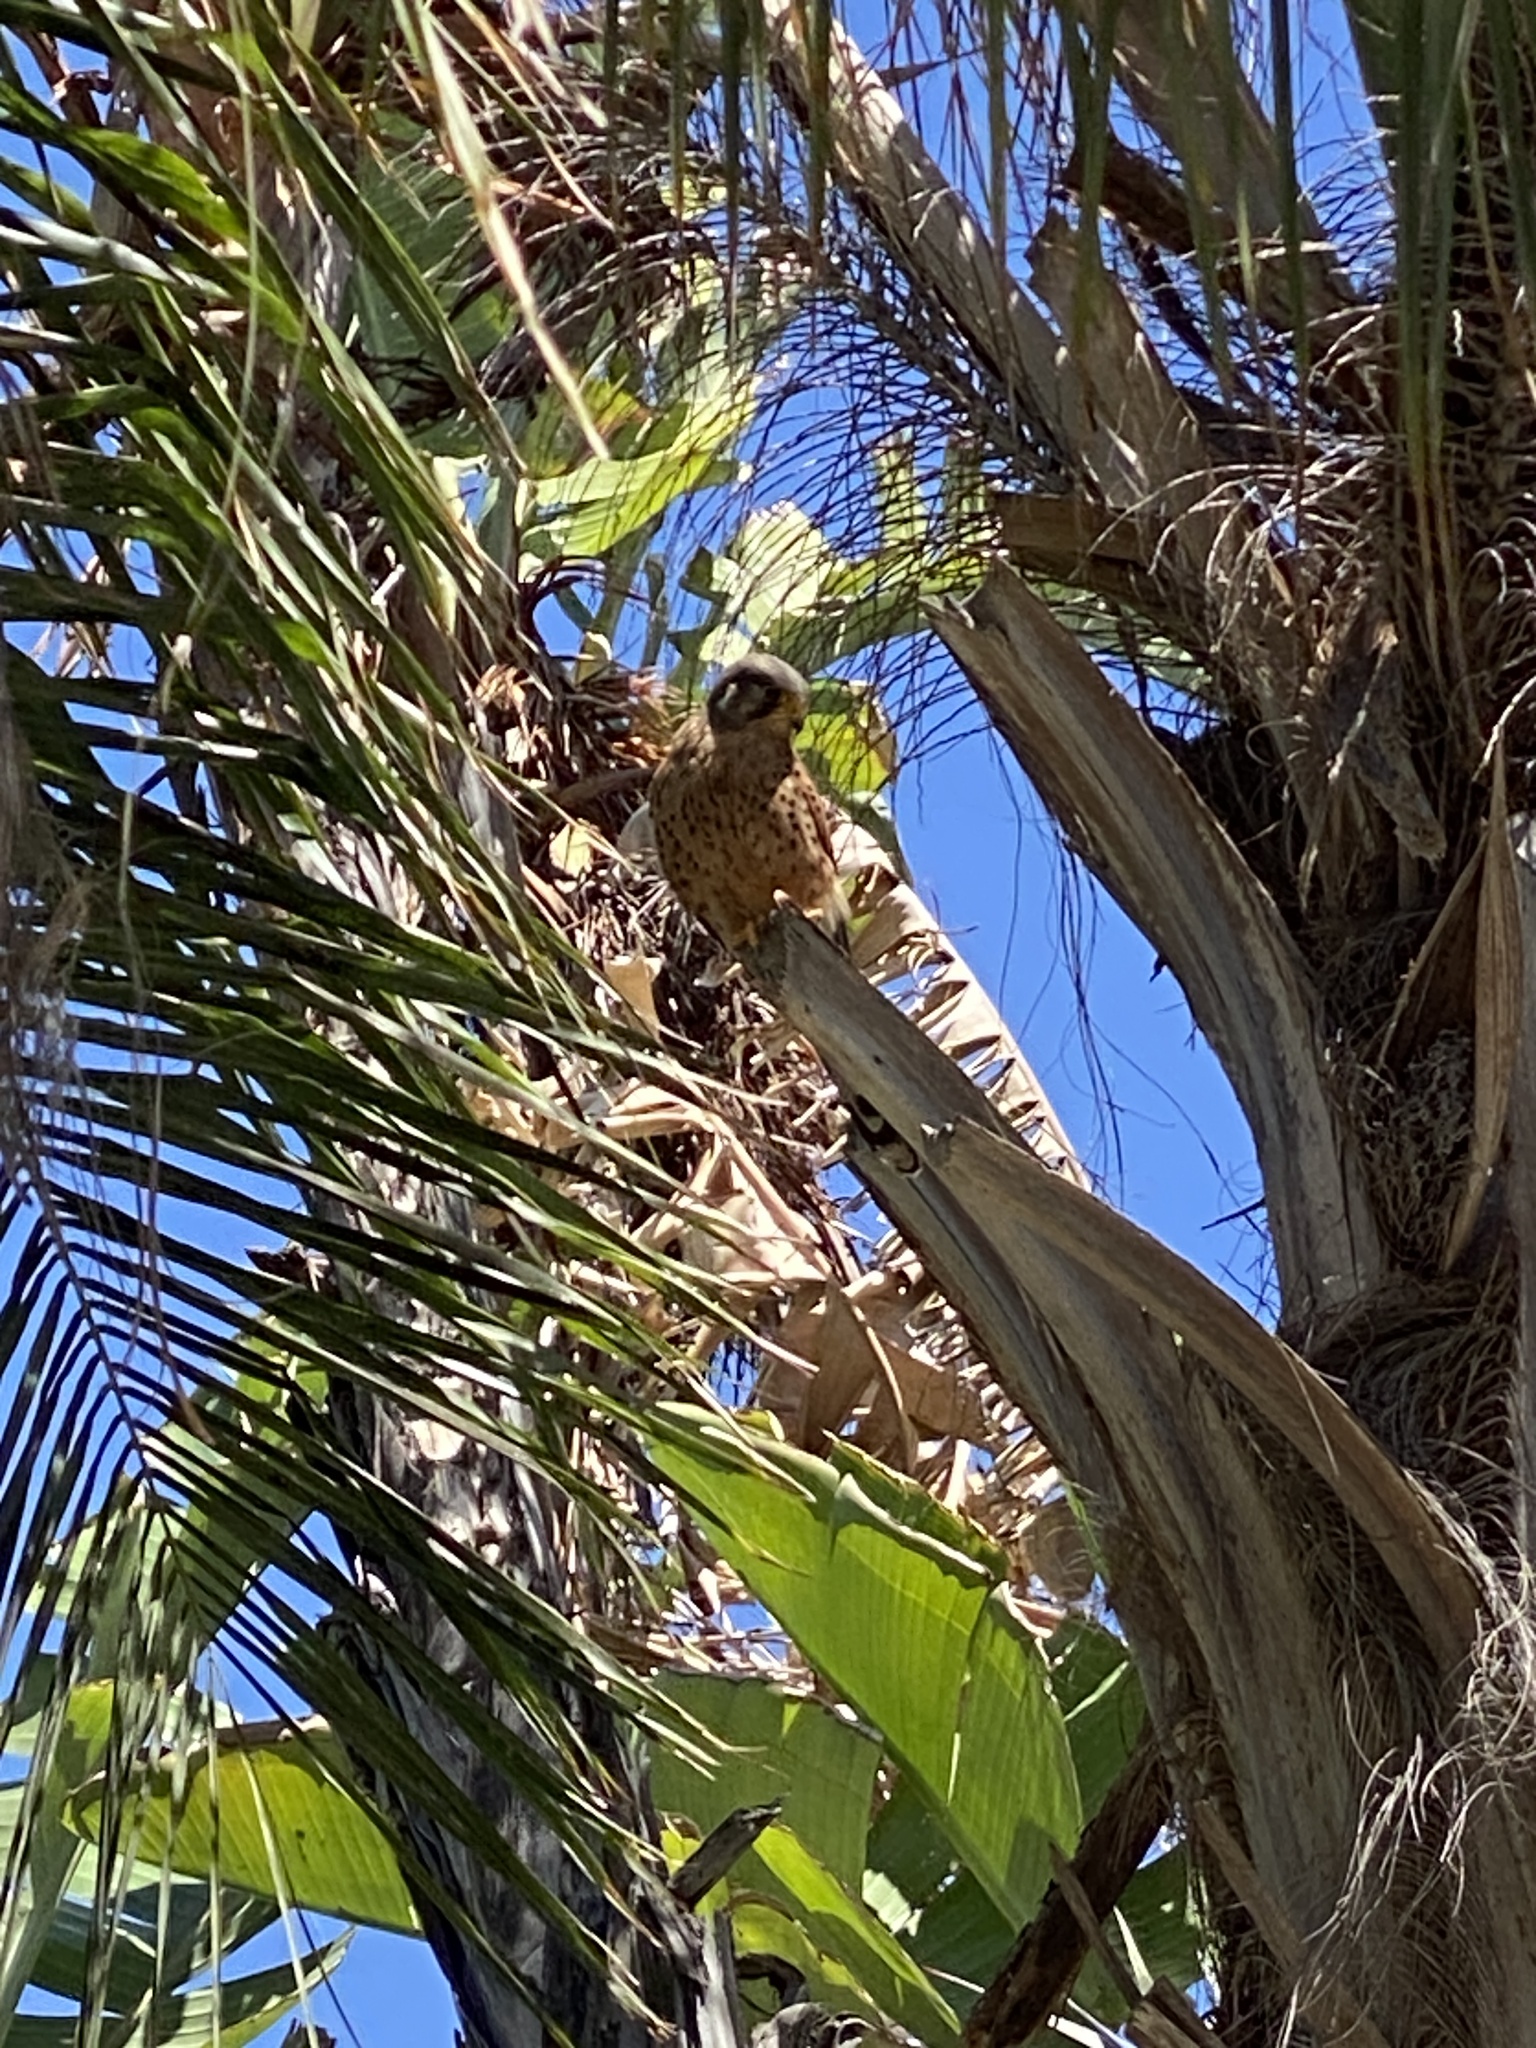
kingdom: Animalia
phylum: Chordata
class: Aves
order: Falconiformes
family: Falconidae
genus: Falco
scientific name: Falco tinnunculus
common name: Common kestrel
